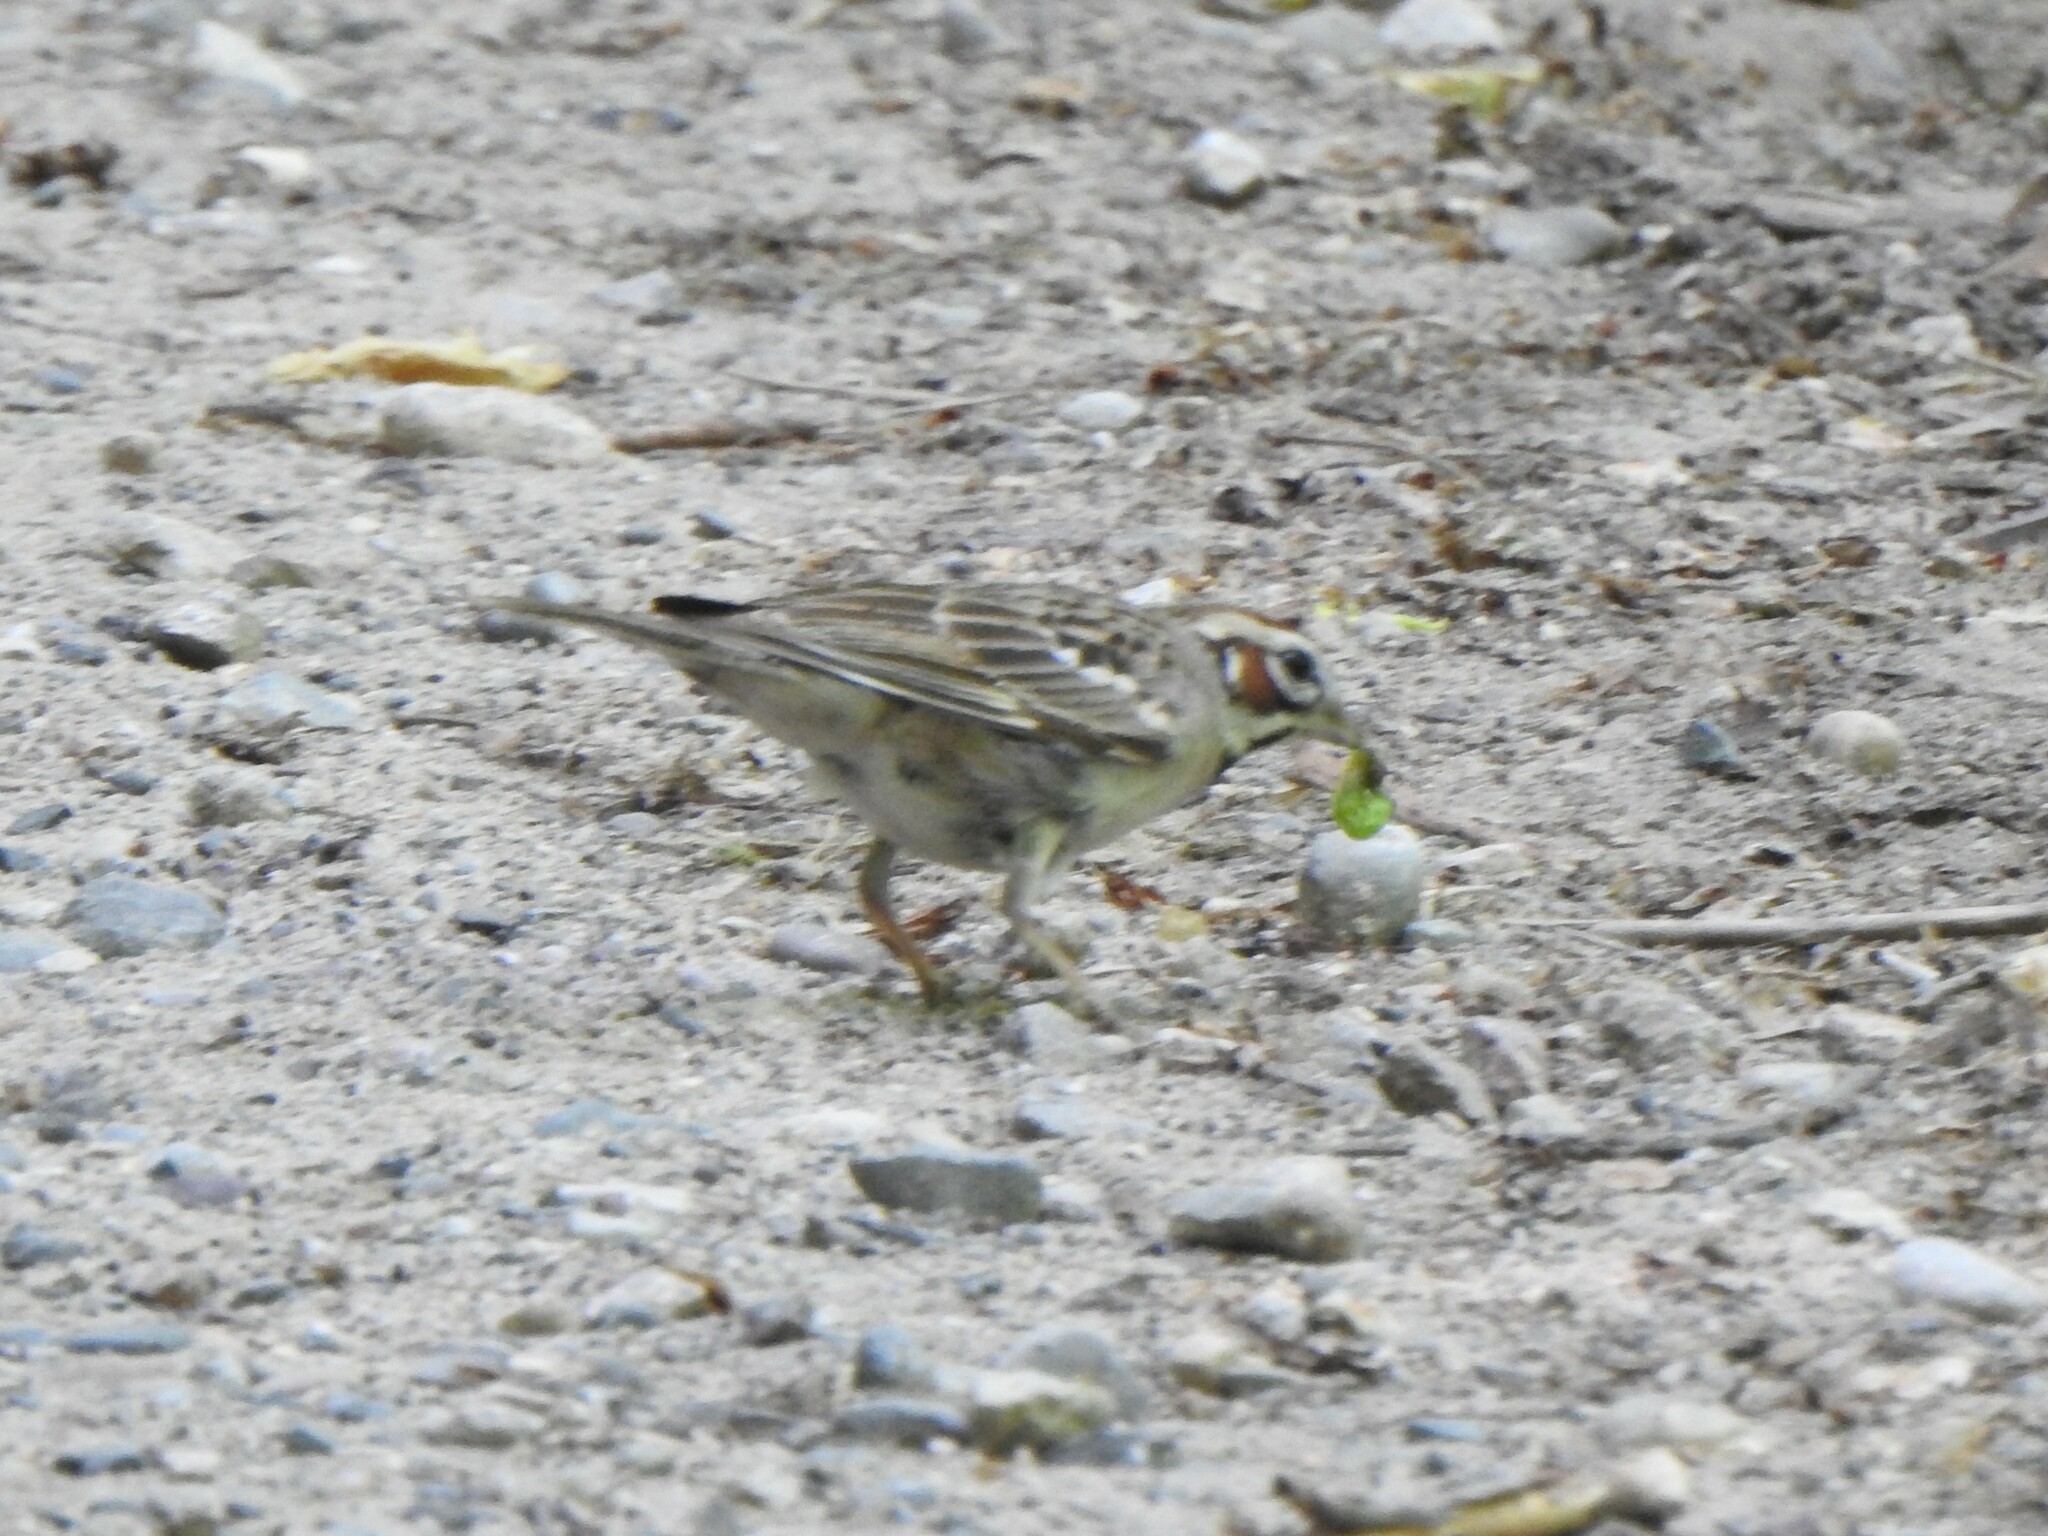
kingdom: Animalia
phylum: Chordata
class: Aves
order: Passeriformes
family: Passerellidae
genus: Chondestes
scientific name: Chondestes grammacus
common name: Lark sparrow
